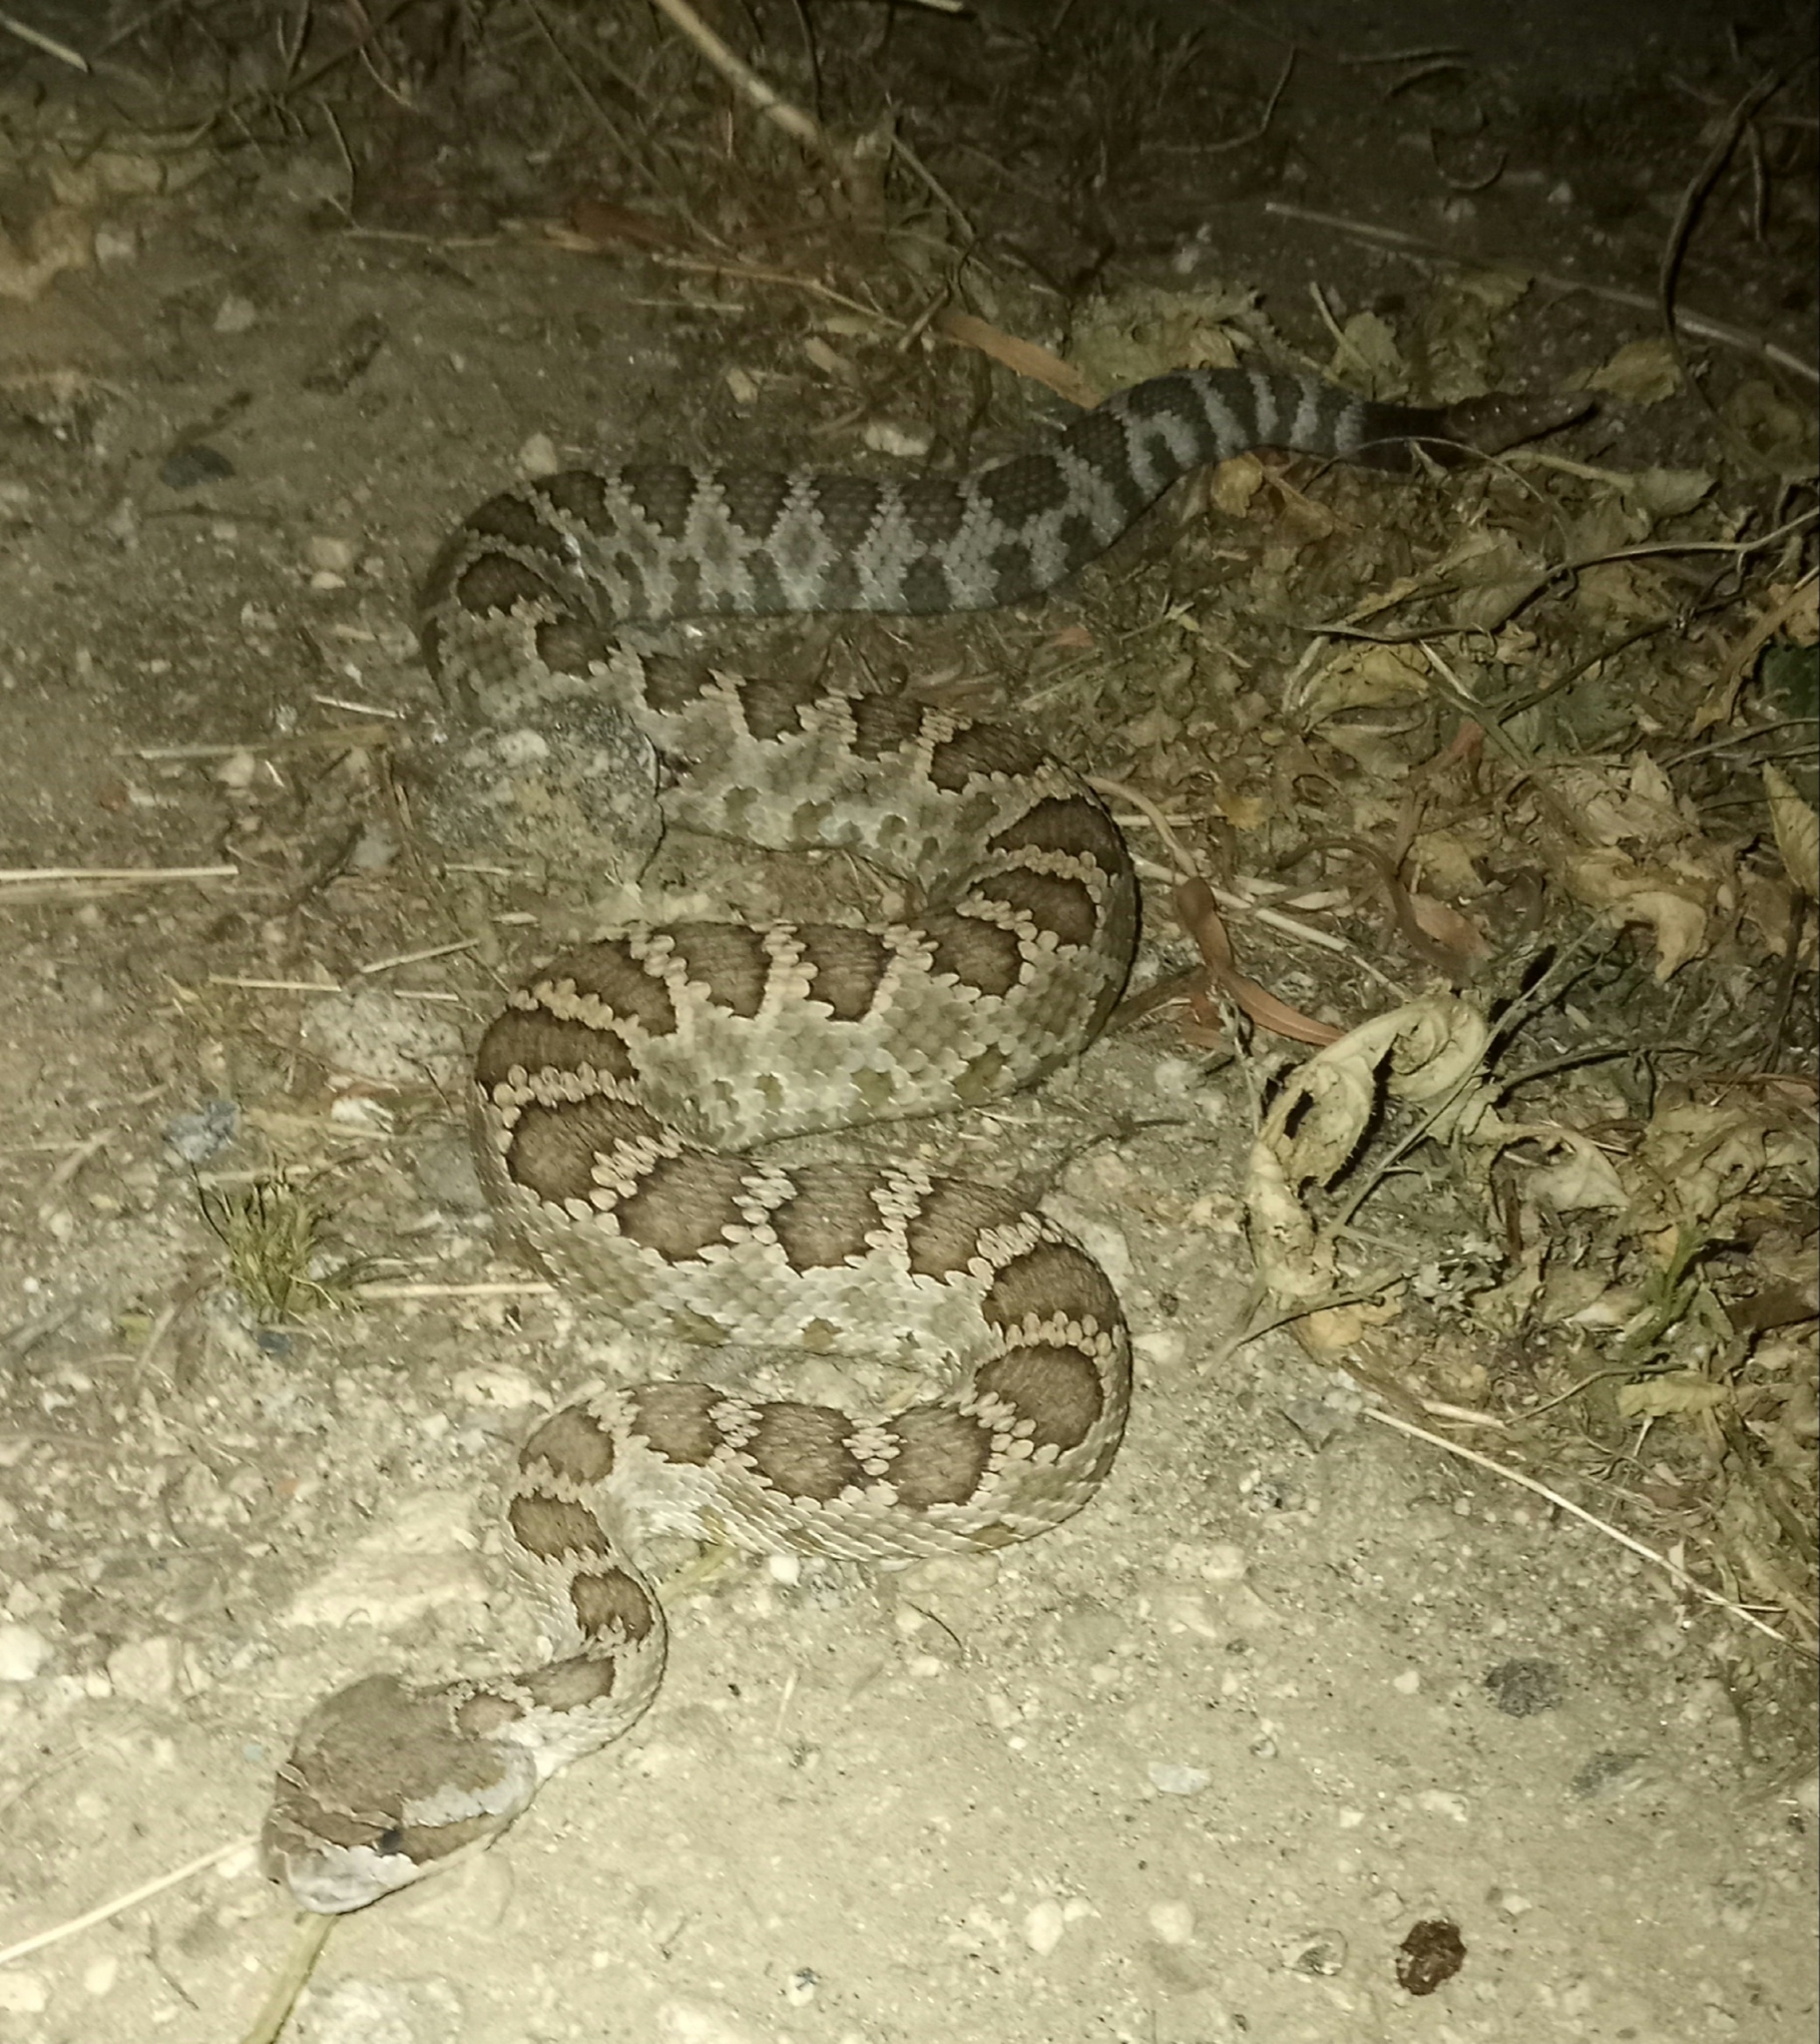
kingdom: Animalia
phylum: Chordata
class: Squamata
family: Viperidae
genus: Crotalus
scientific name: Crotalus oreganus
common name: Abyssus
